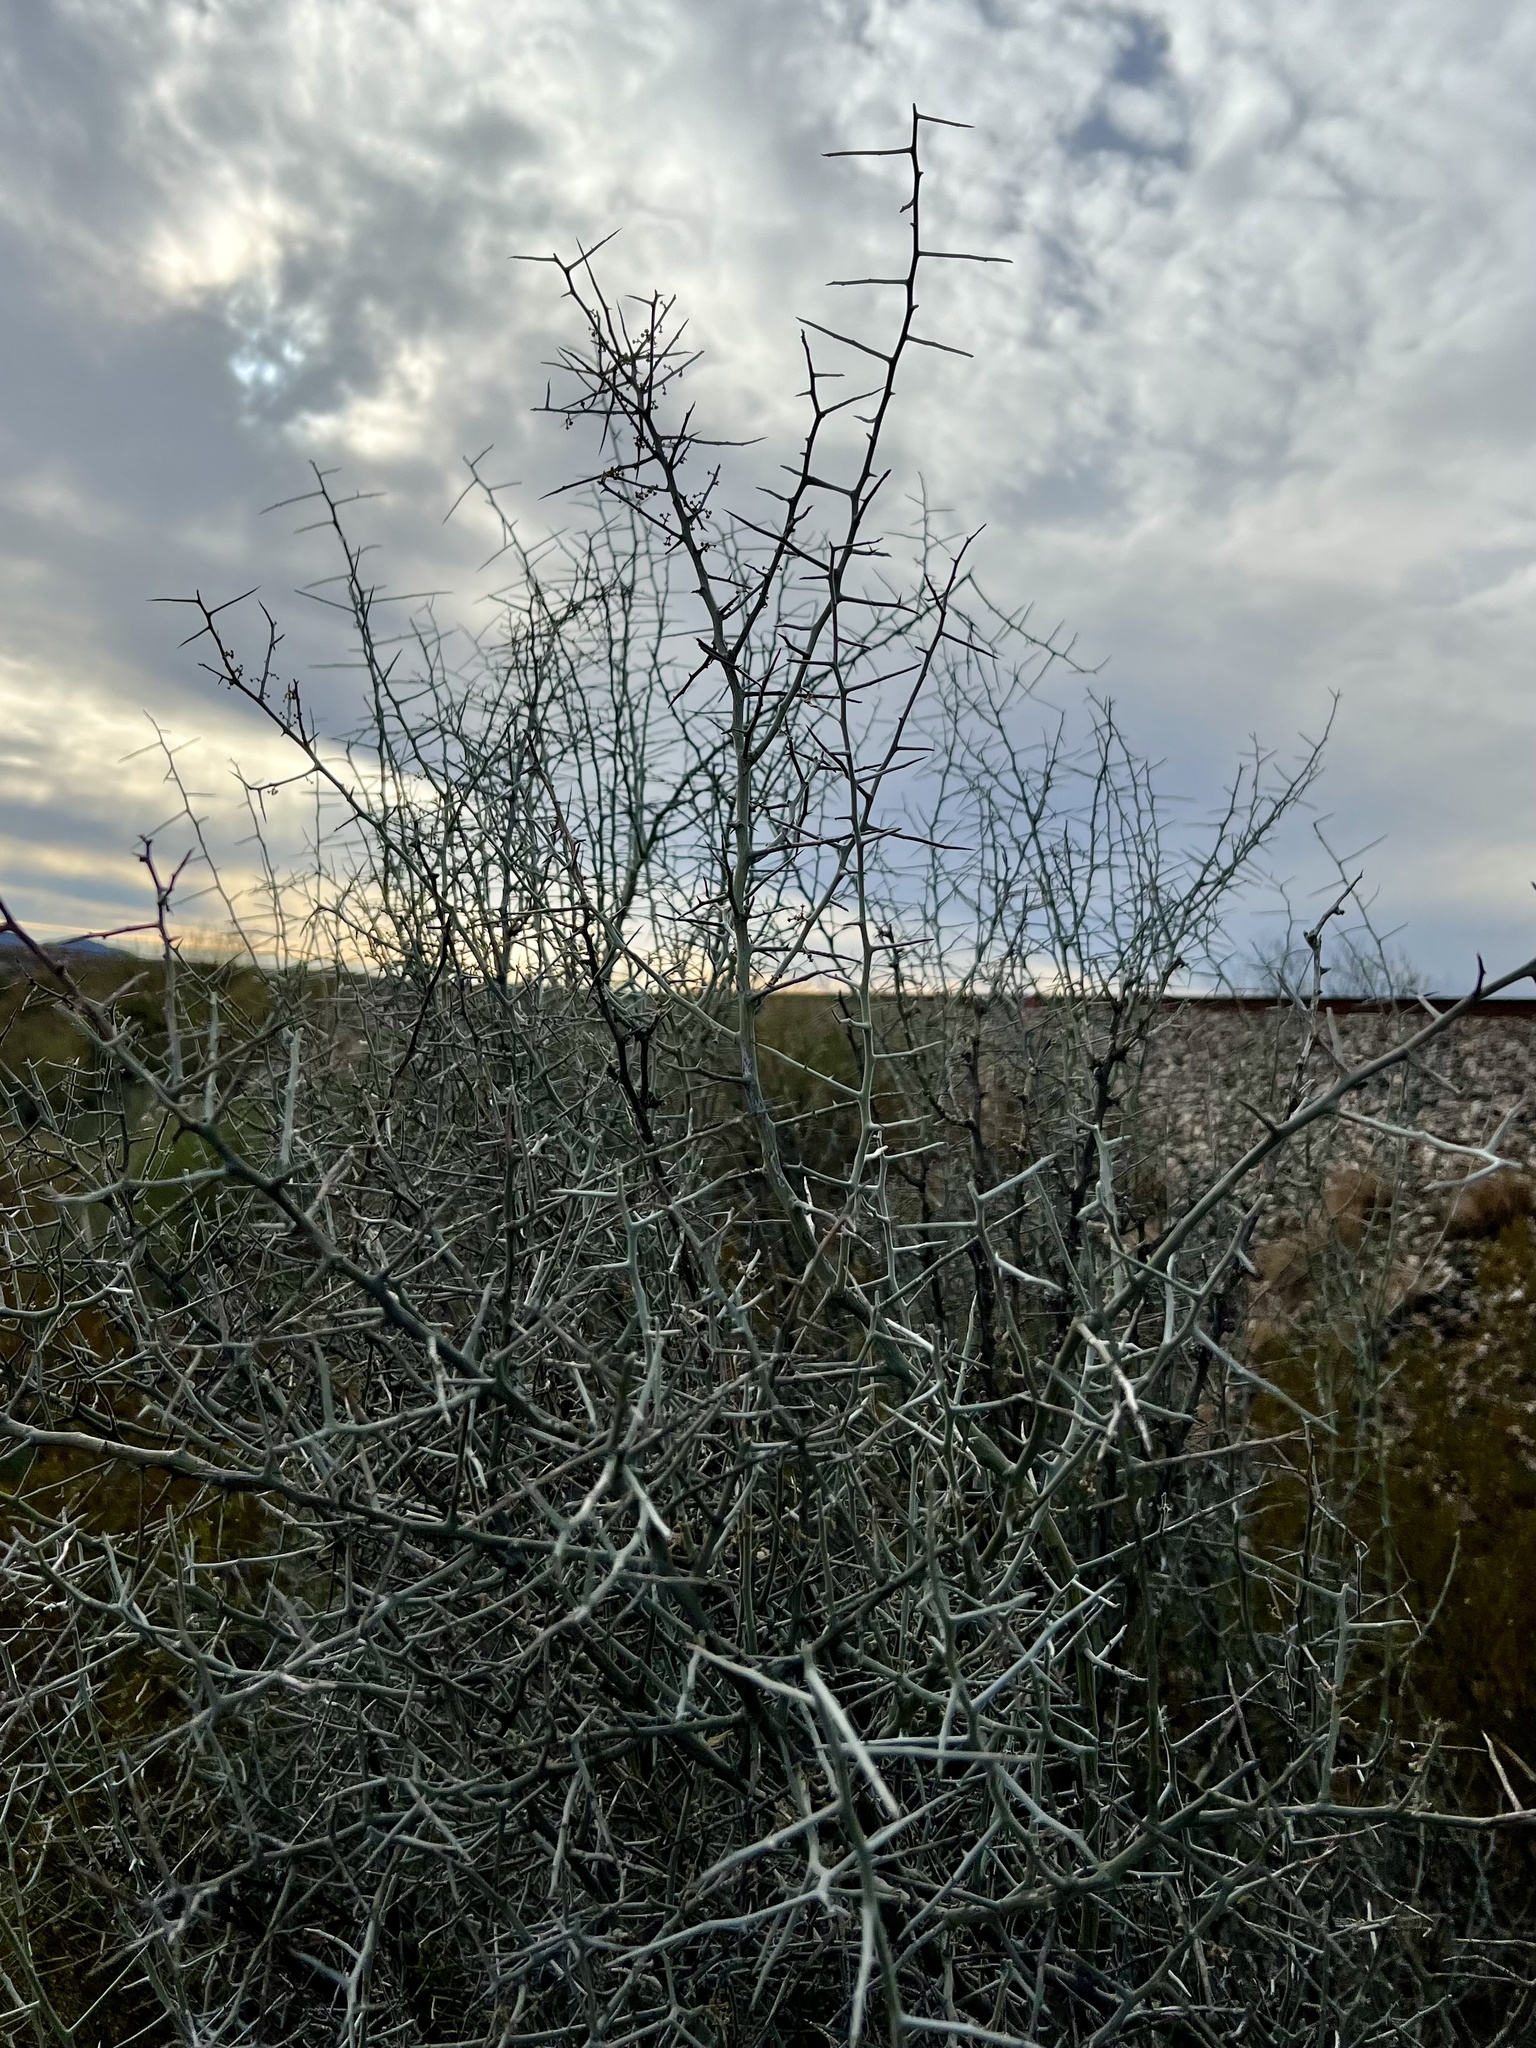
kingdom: Plantae
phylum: Tracheophyta
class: Magnoliopsida
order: Rosales
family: Rhamnaceae
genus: Sarcomphalus
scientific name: Sarcomphalus obtusifolius
